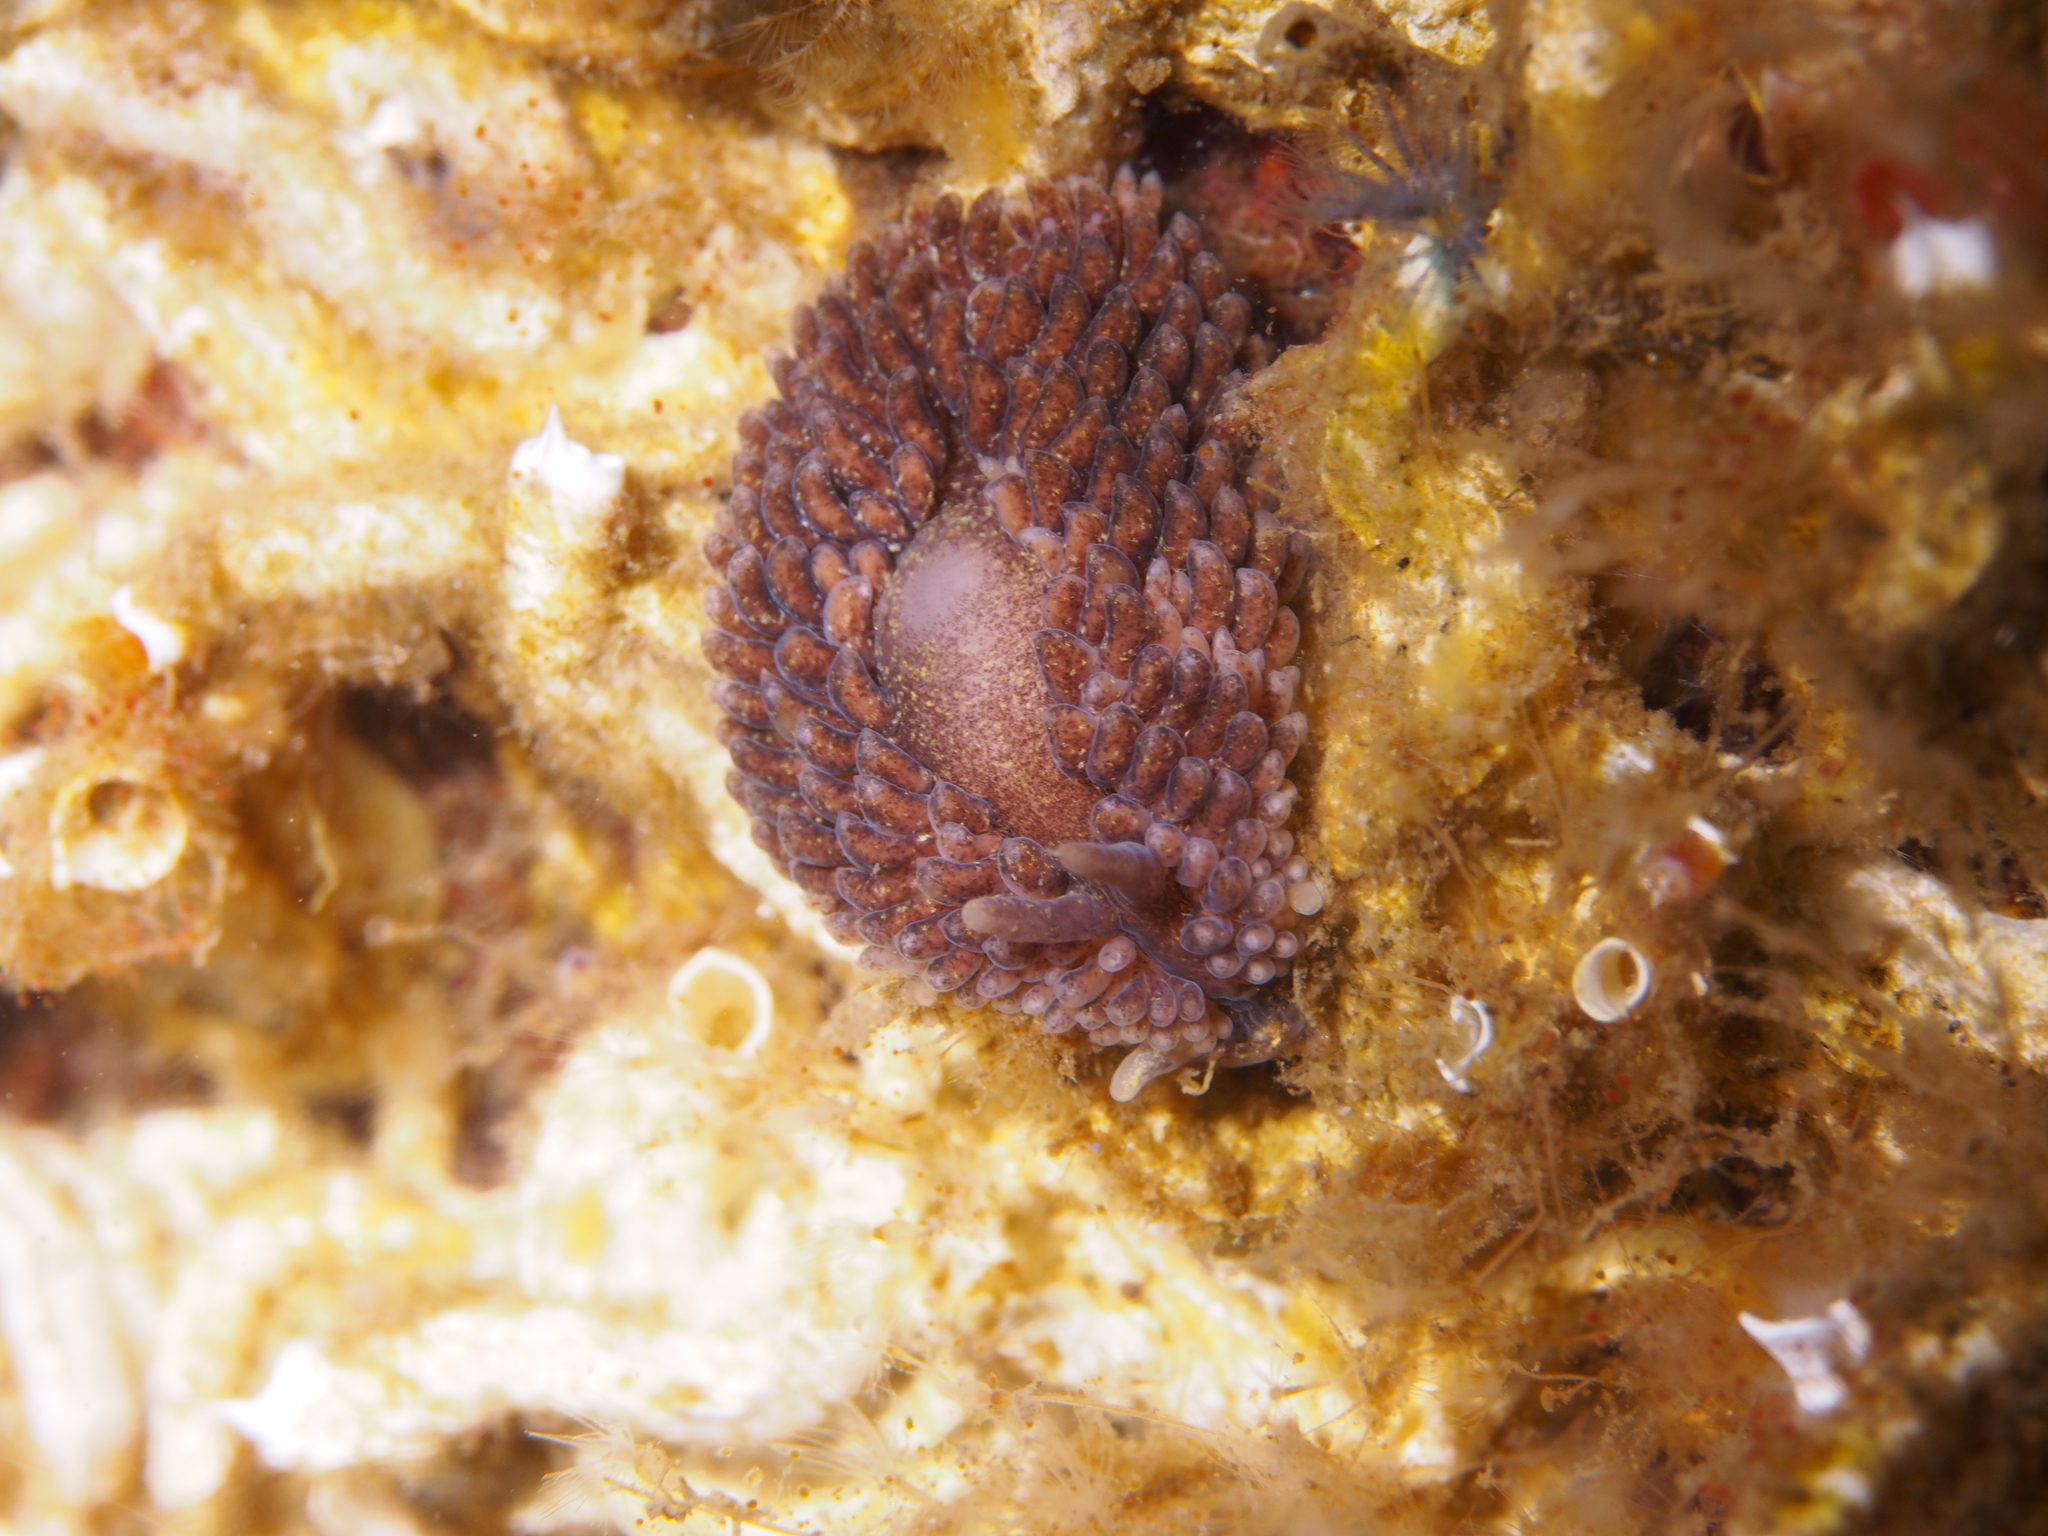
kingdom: Animalia
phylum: Mollusca
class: Gastropoda
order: Nudibranchia
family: Aeolidiidae
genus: Aeolidia
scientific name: Aeolidia papillosa
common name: Common grey sea slug
